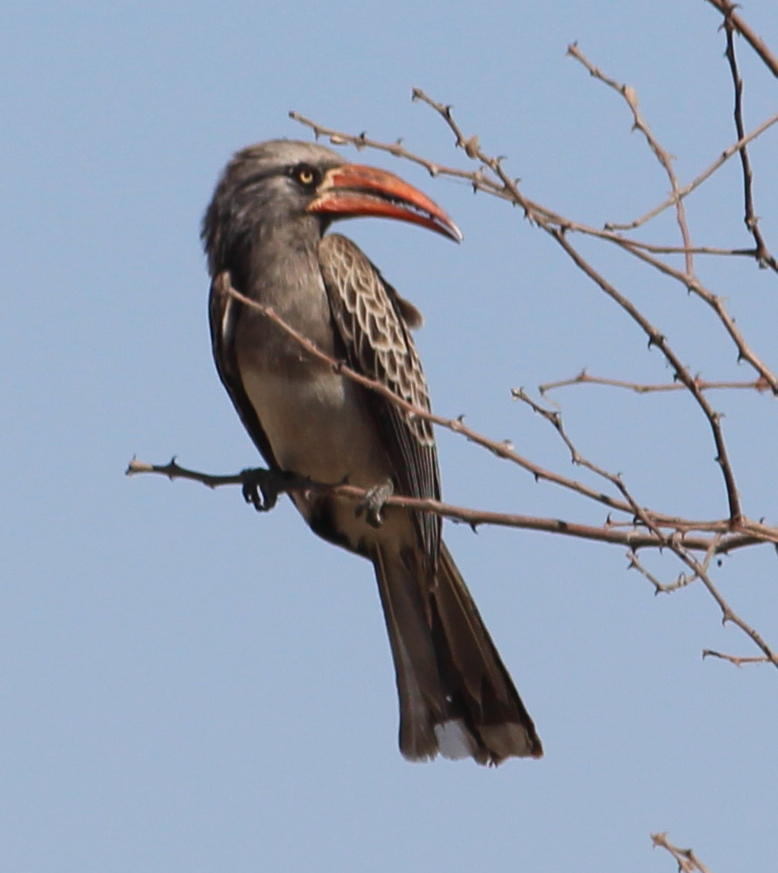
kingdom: Animalia
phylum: Chordata
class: Aves
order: Bucerotiformes
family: Bucerotidae
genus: Lophoceros
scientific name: Lophoceros bradfieldi
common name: Bradfield's hornbill
